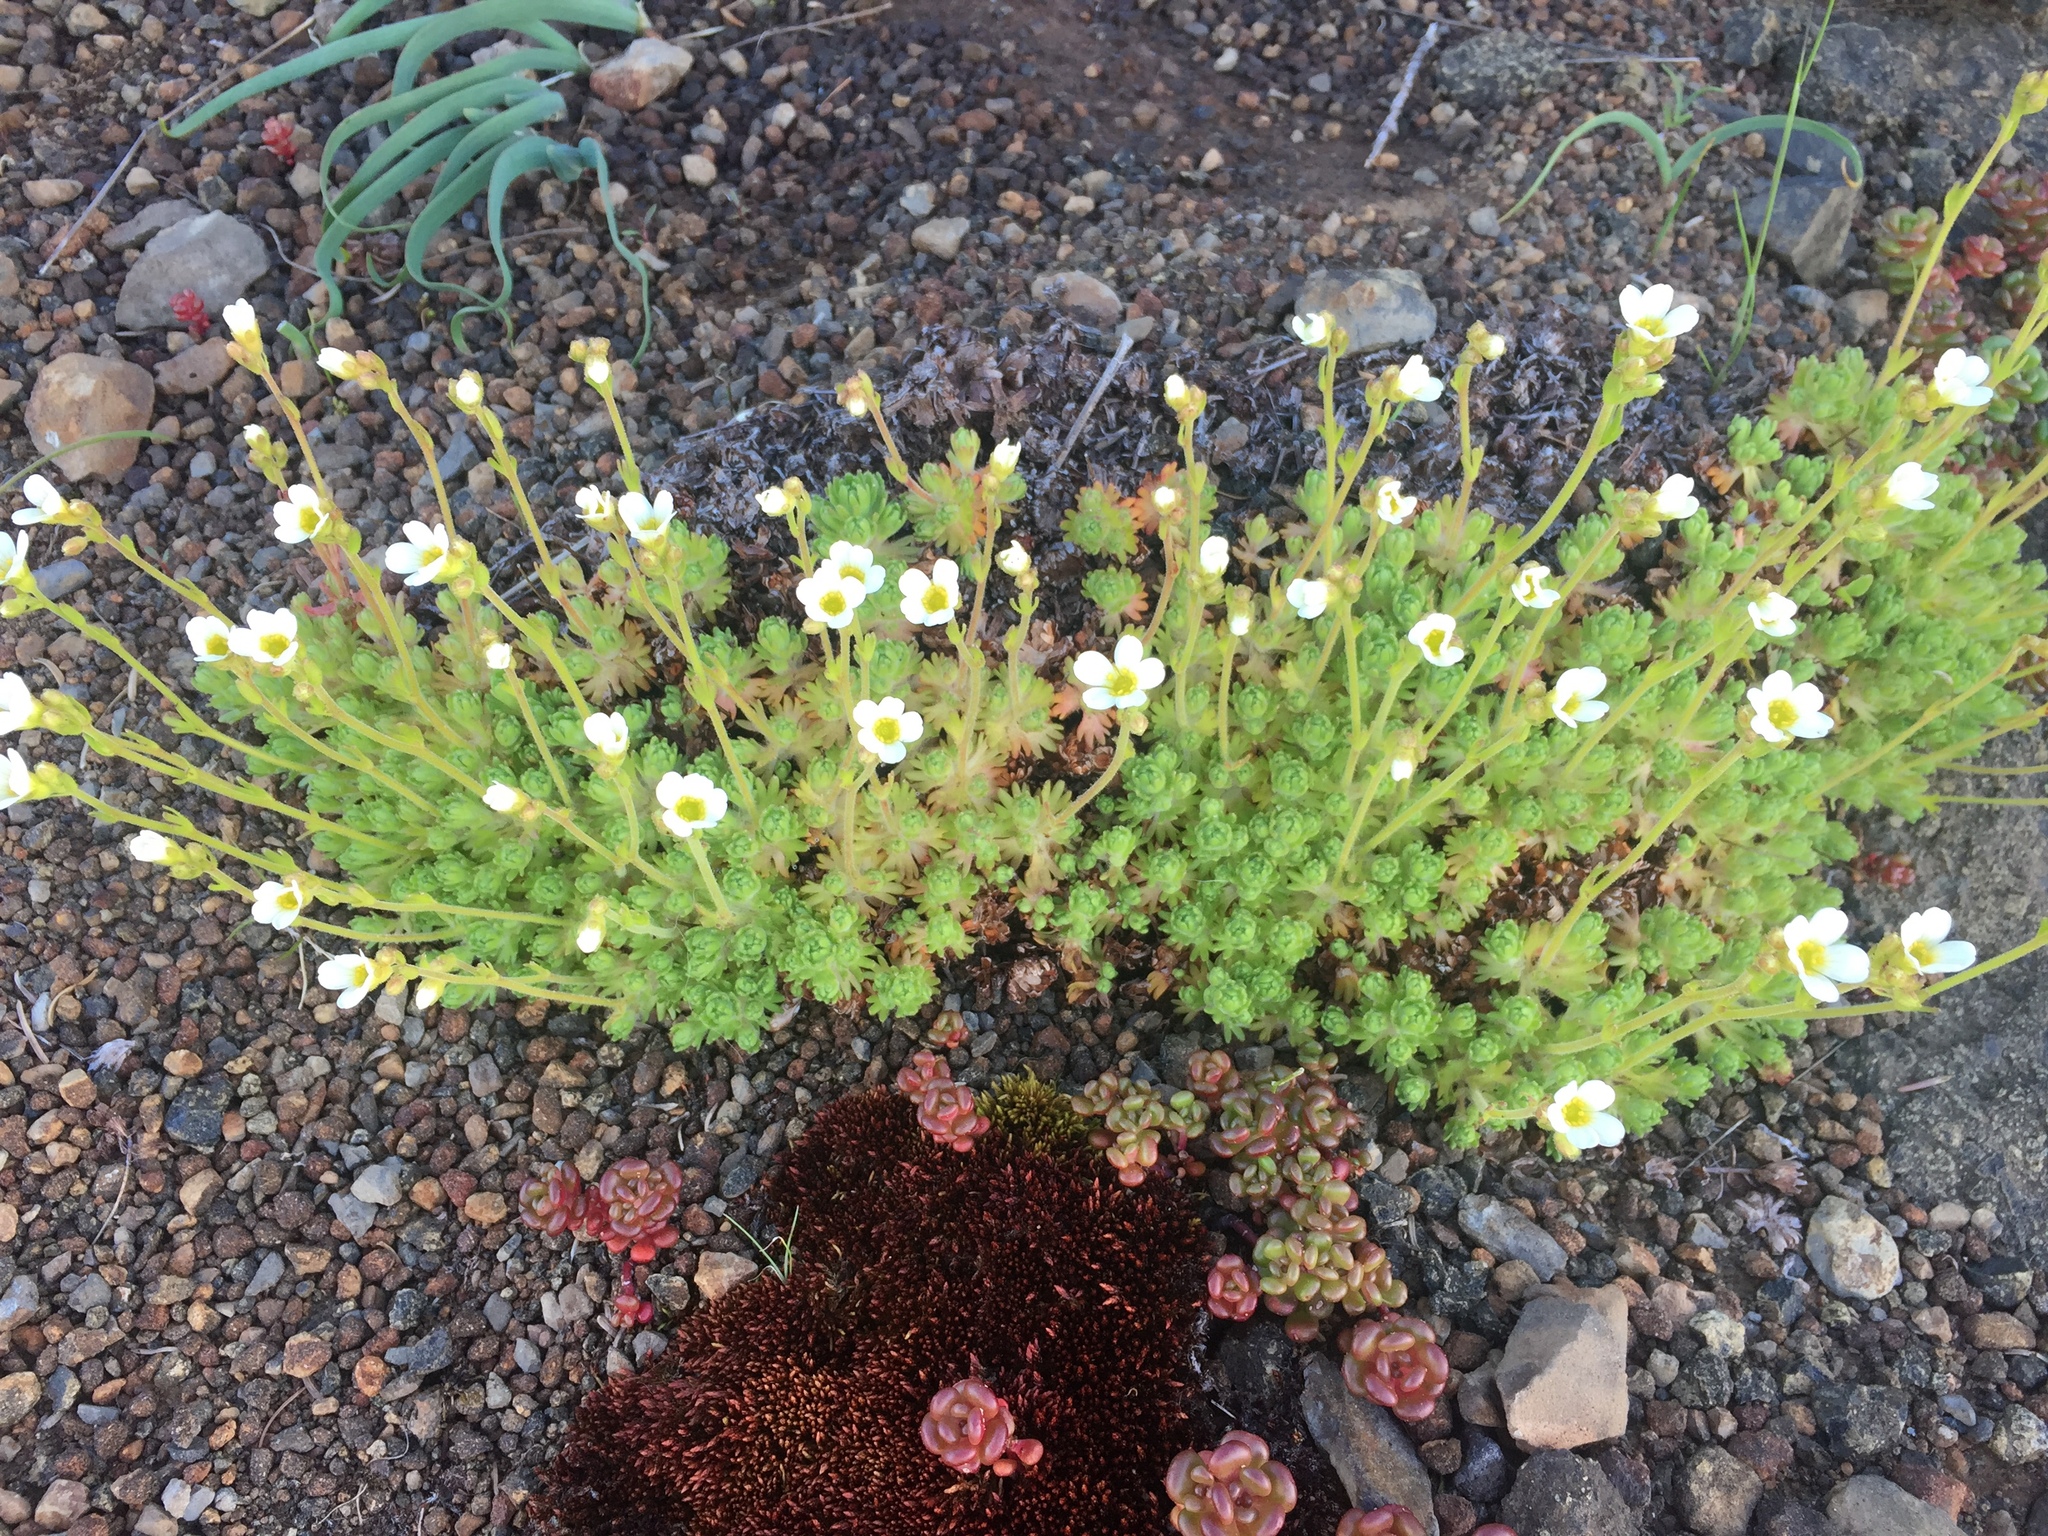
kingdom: Plantae
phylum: Tracheophyta
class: Magnoliopsida
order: Saxifragales
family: Saxifragaceae
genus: Saxifraga
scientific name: Saxifraga cespitosa
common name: Tufted saxifrage
